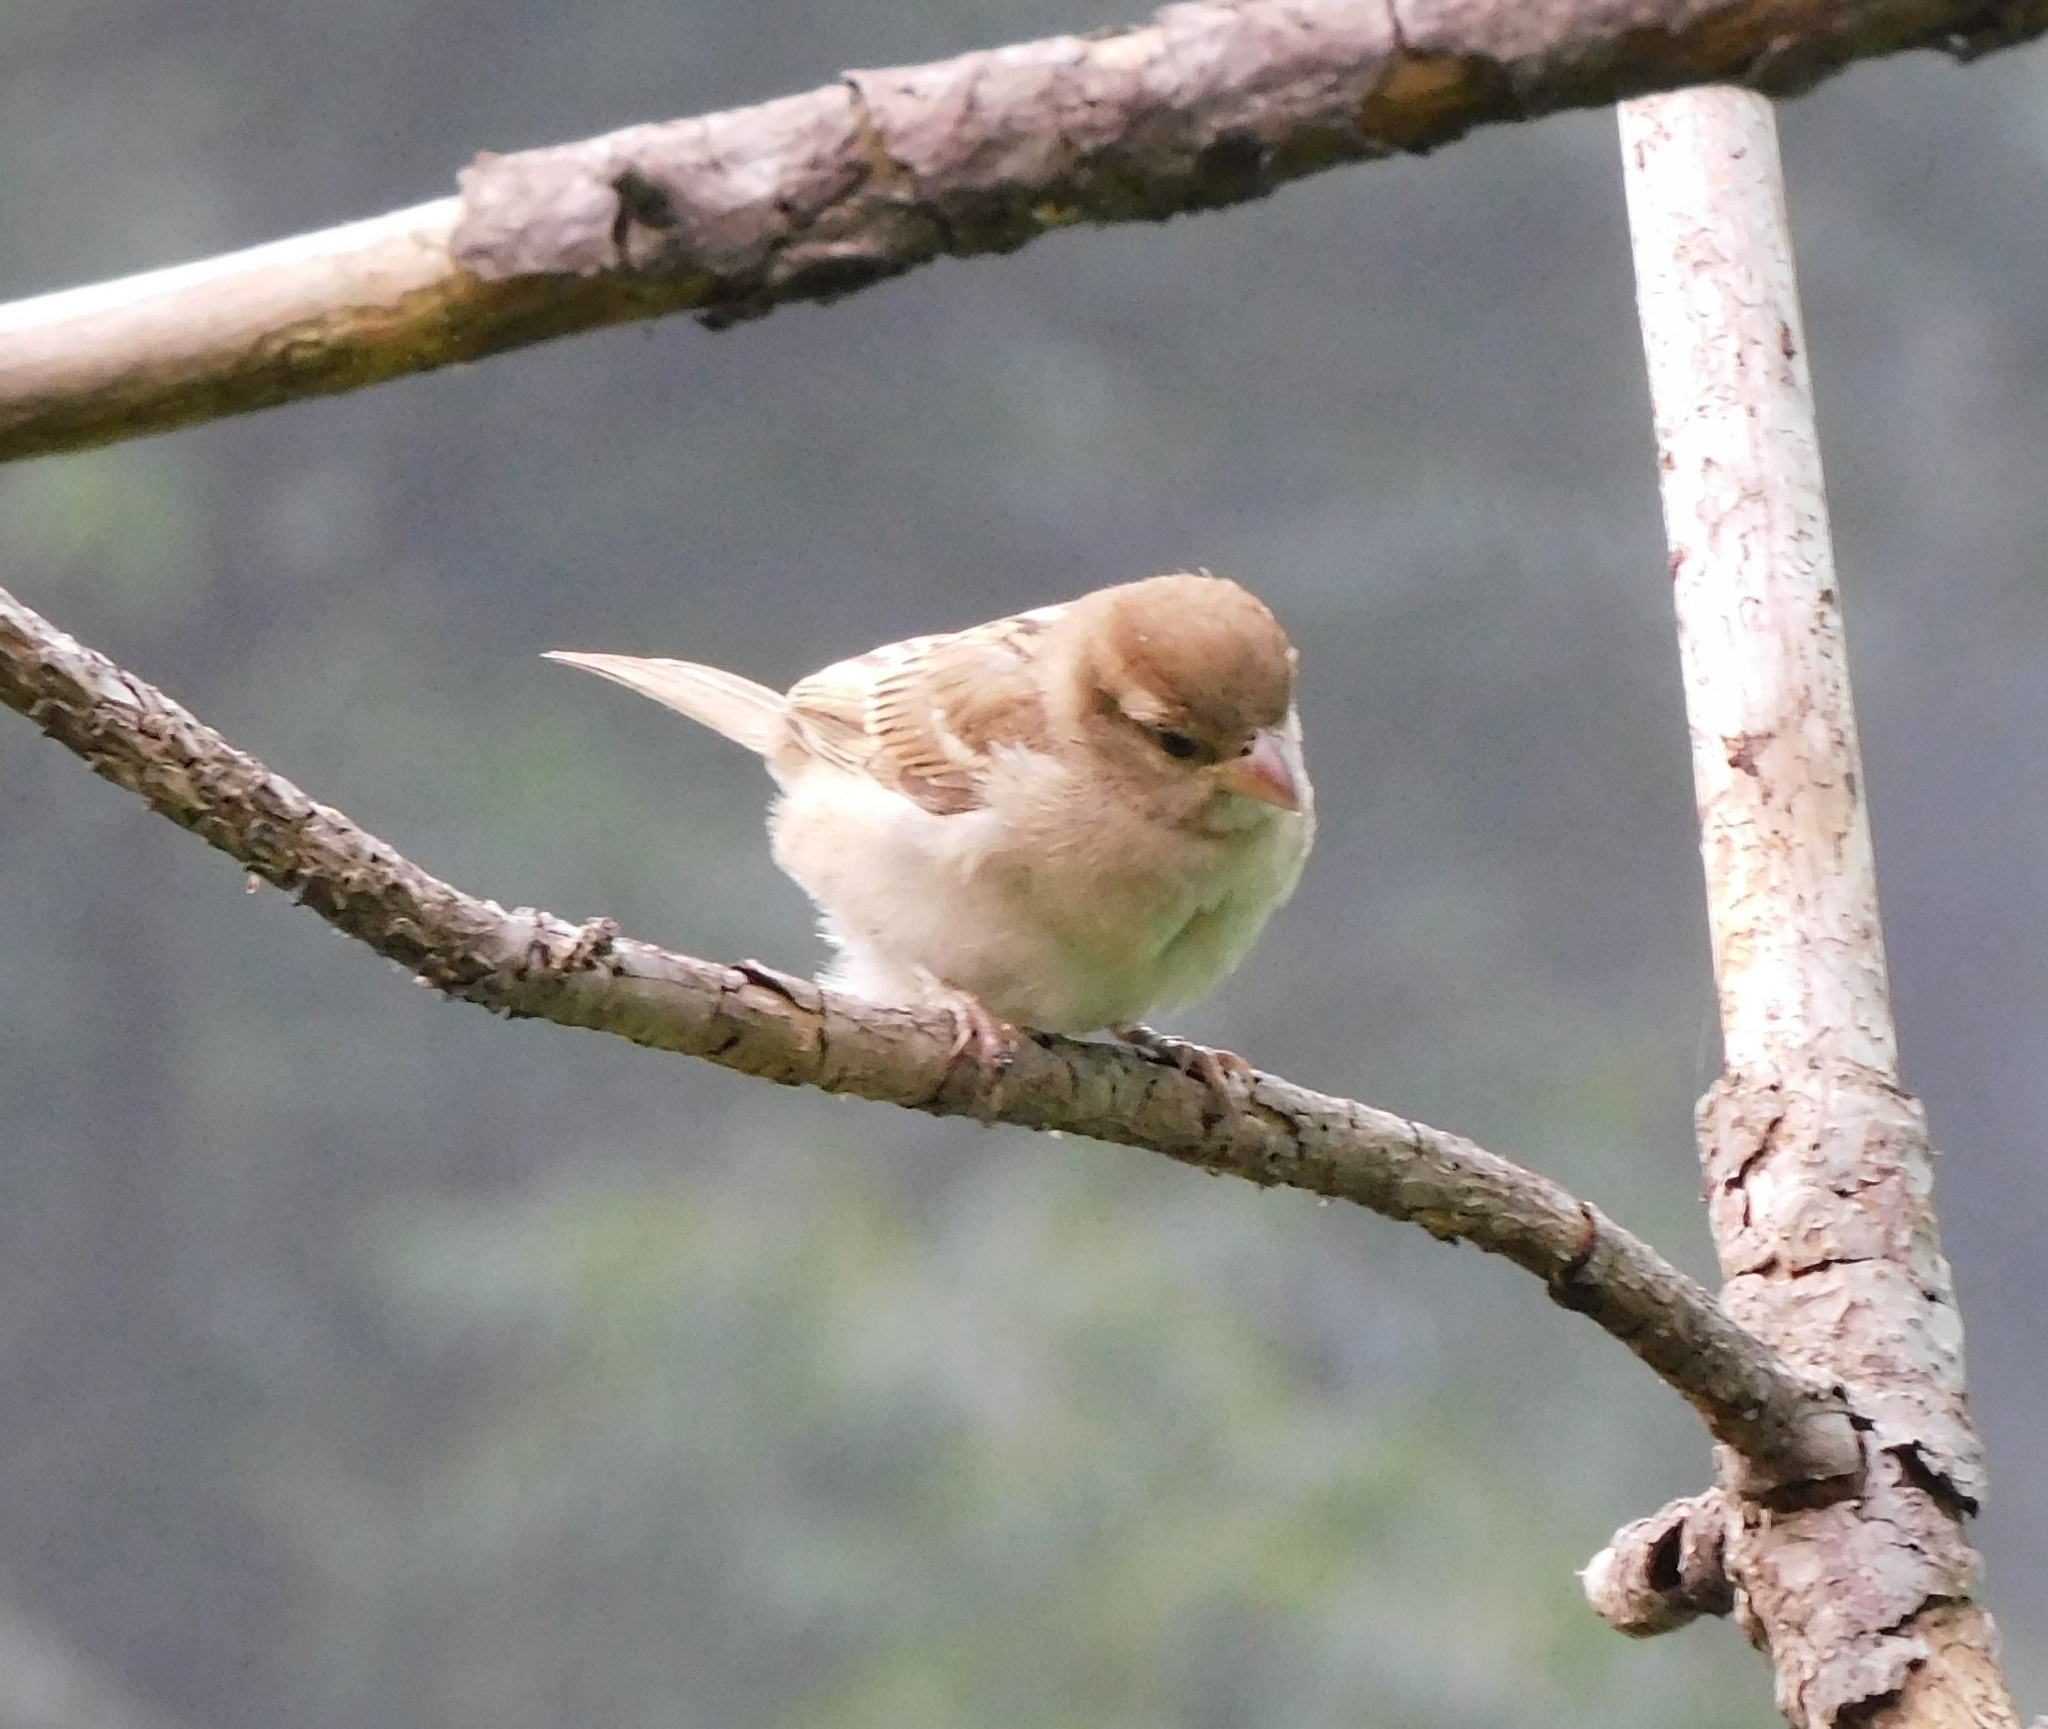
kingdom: Animalia
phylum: Chordata
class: Aves
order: Passeriformes
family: Passeridae
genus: Passer
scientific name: Passer domesticus
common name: House sparrow
